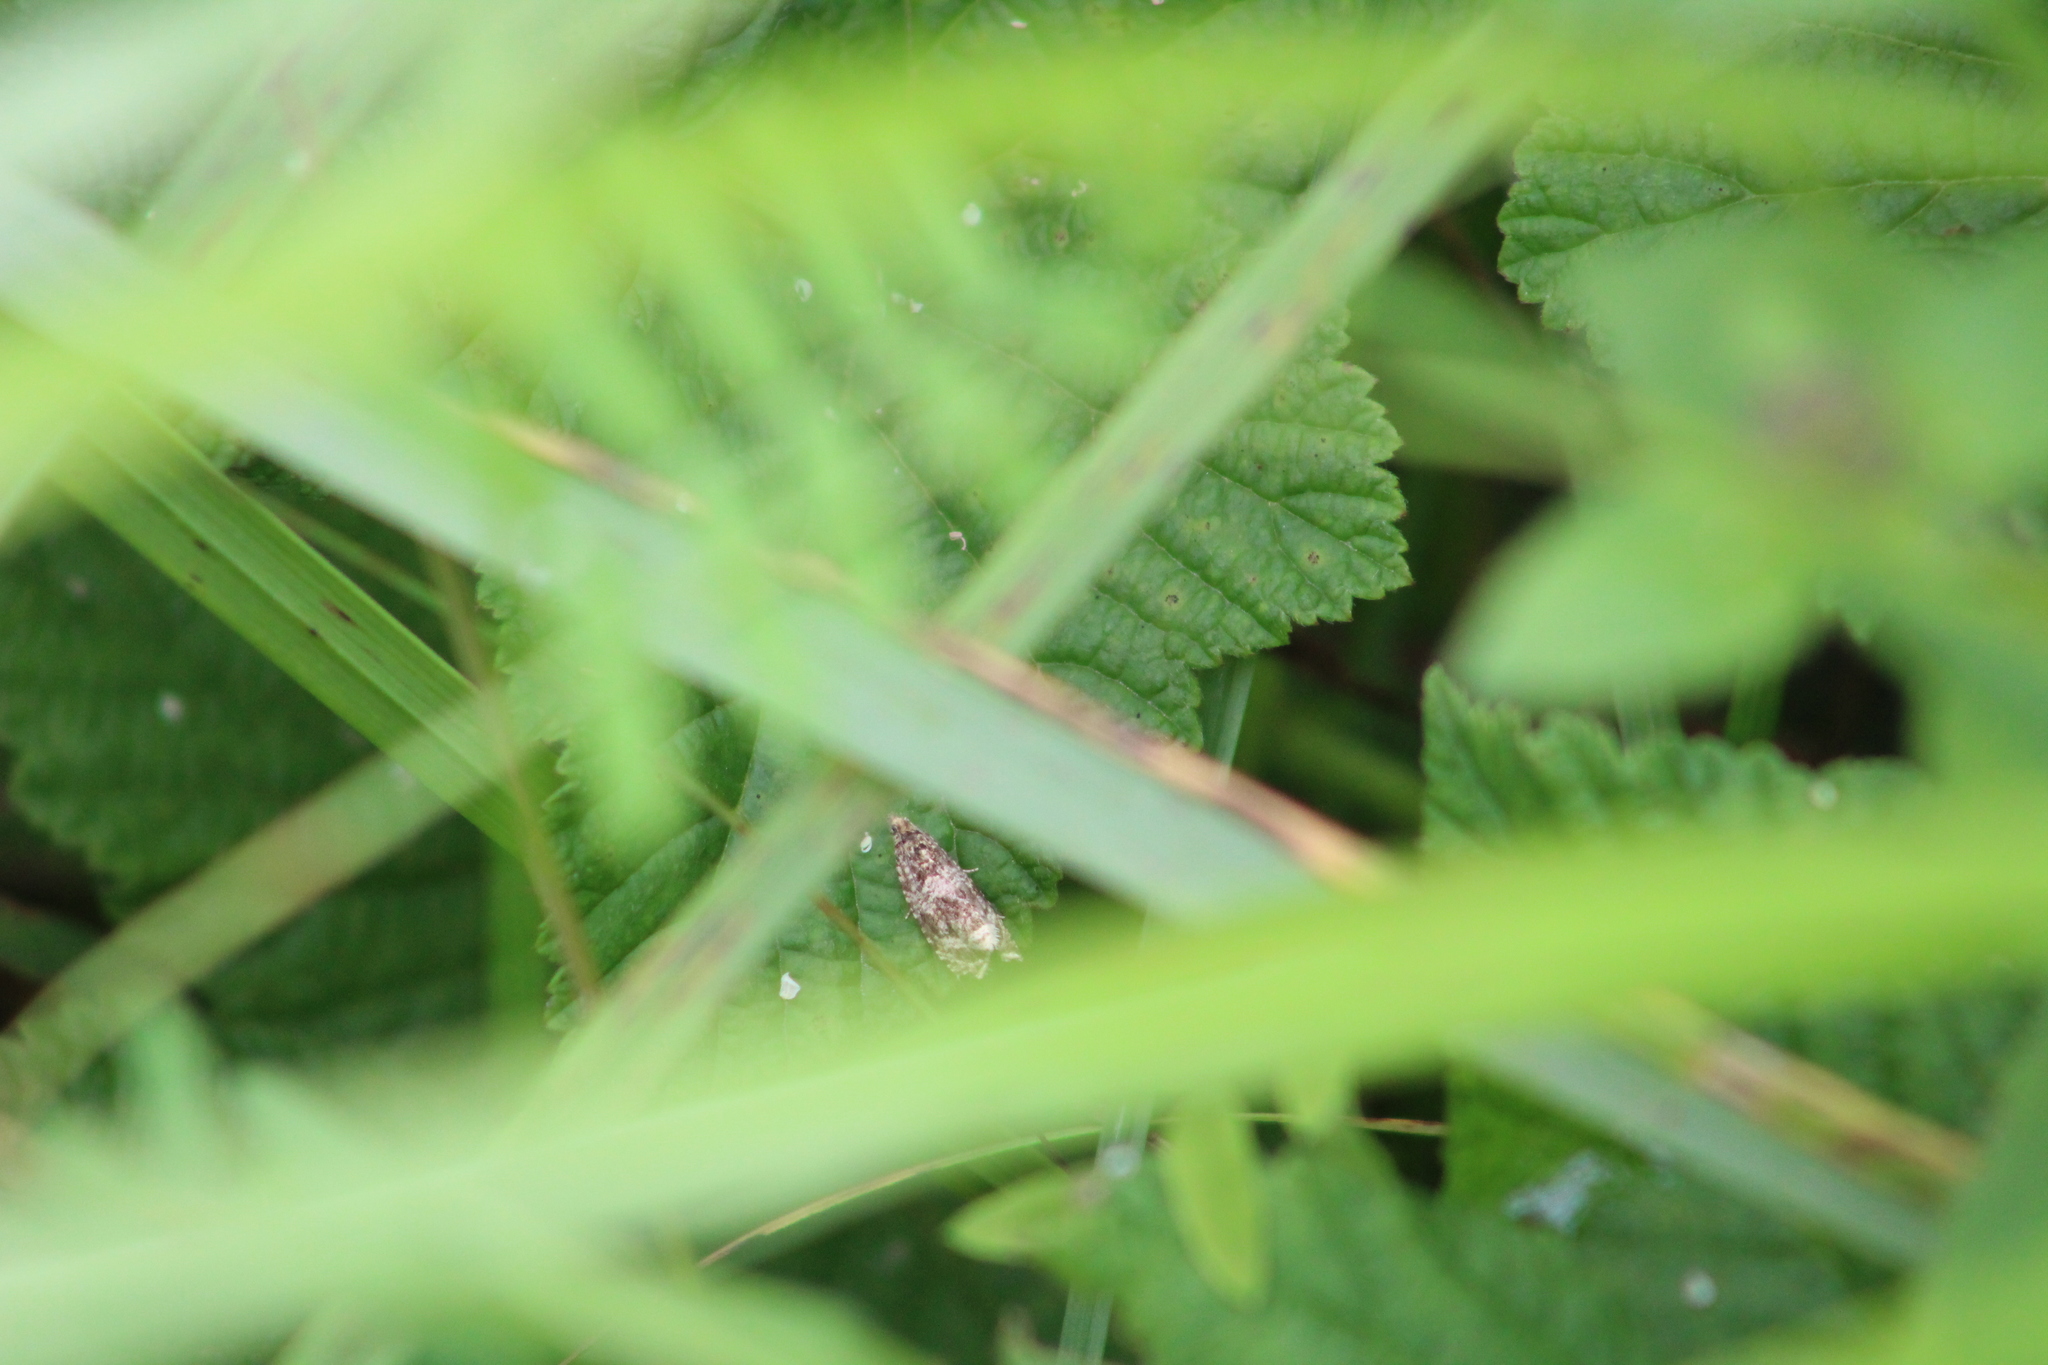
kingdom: Animalia
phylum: Arthropoda
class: Insecta
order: Lepidoptera
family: Tortricidae
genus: Syricoris
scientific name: Syricoris lacunana
